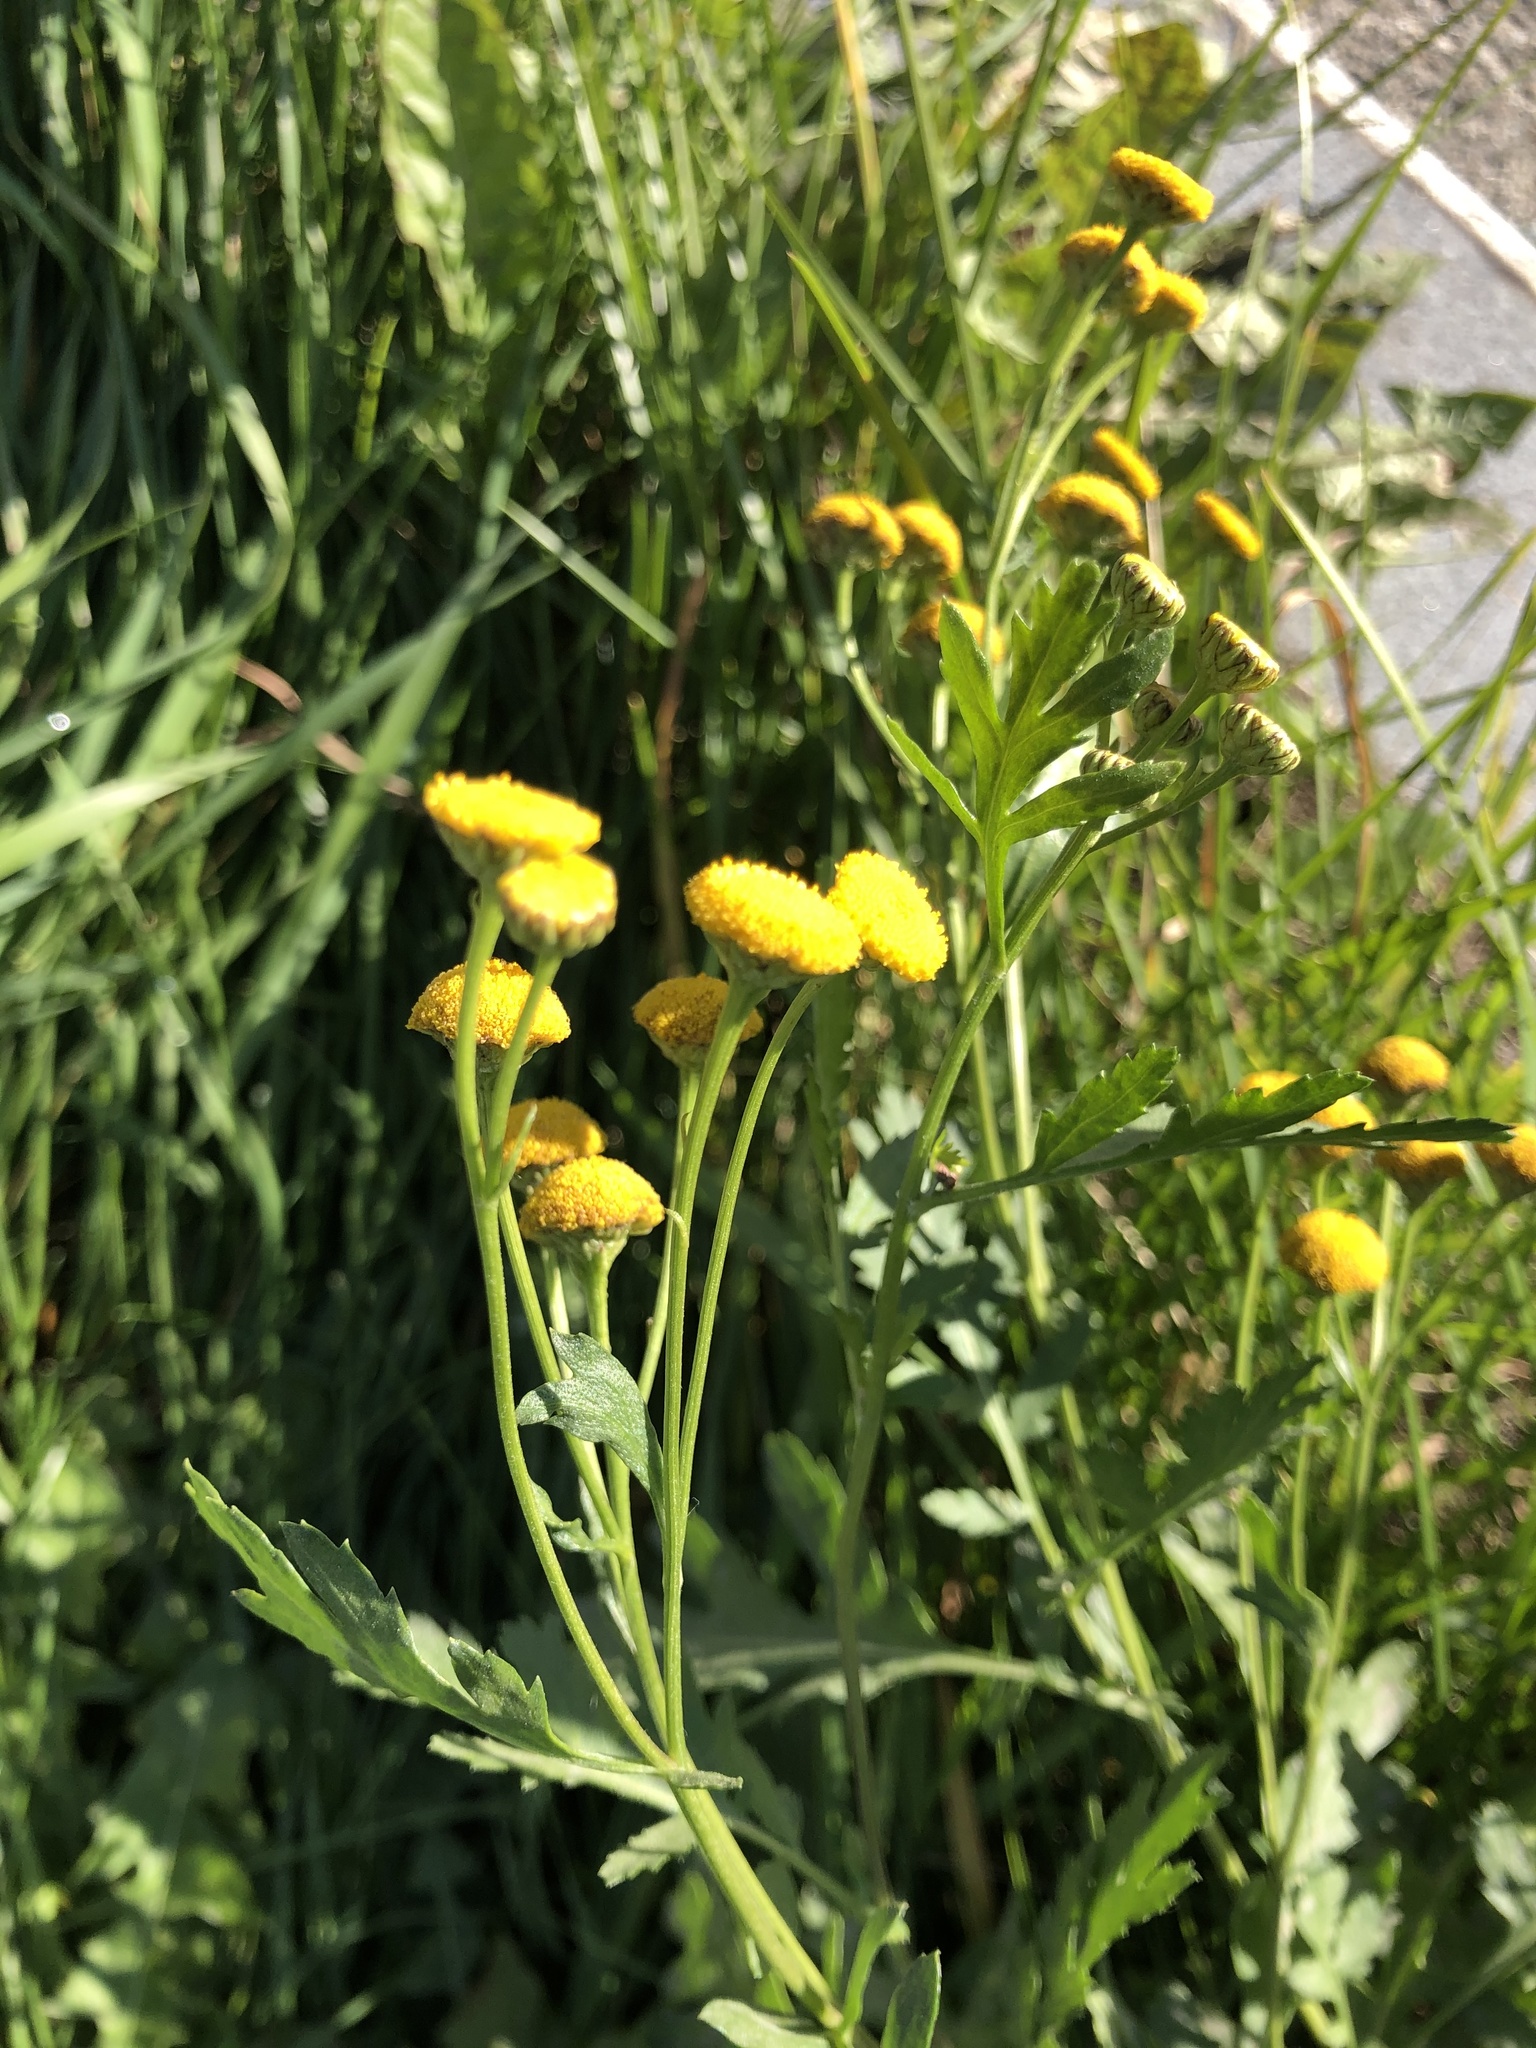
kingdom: Plantae
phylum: Tracheophyta
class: Magnoliopsida
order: Asterales
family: Asteraceae
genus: Tanacetum
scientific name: Tanacetum vulgare
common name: Common tansy
